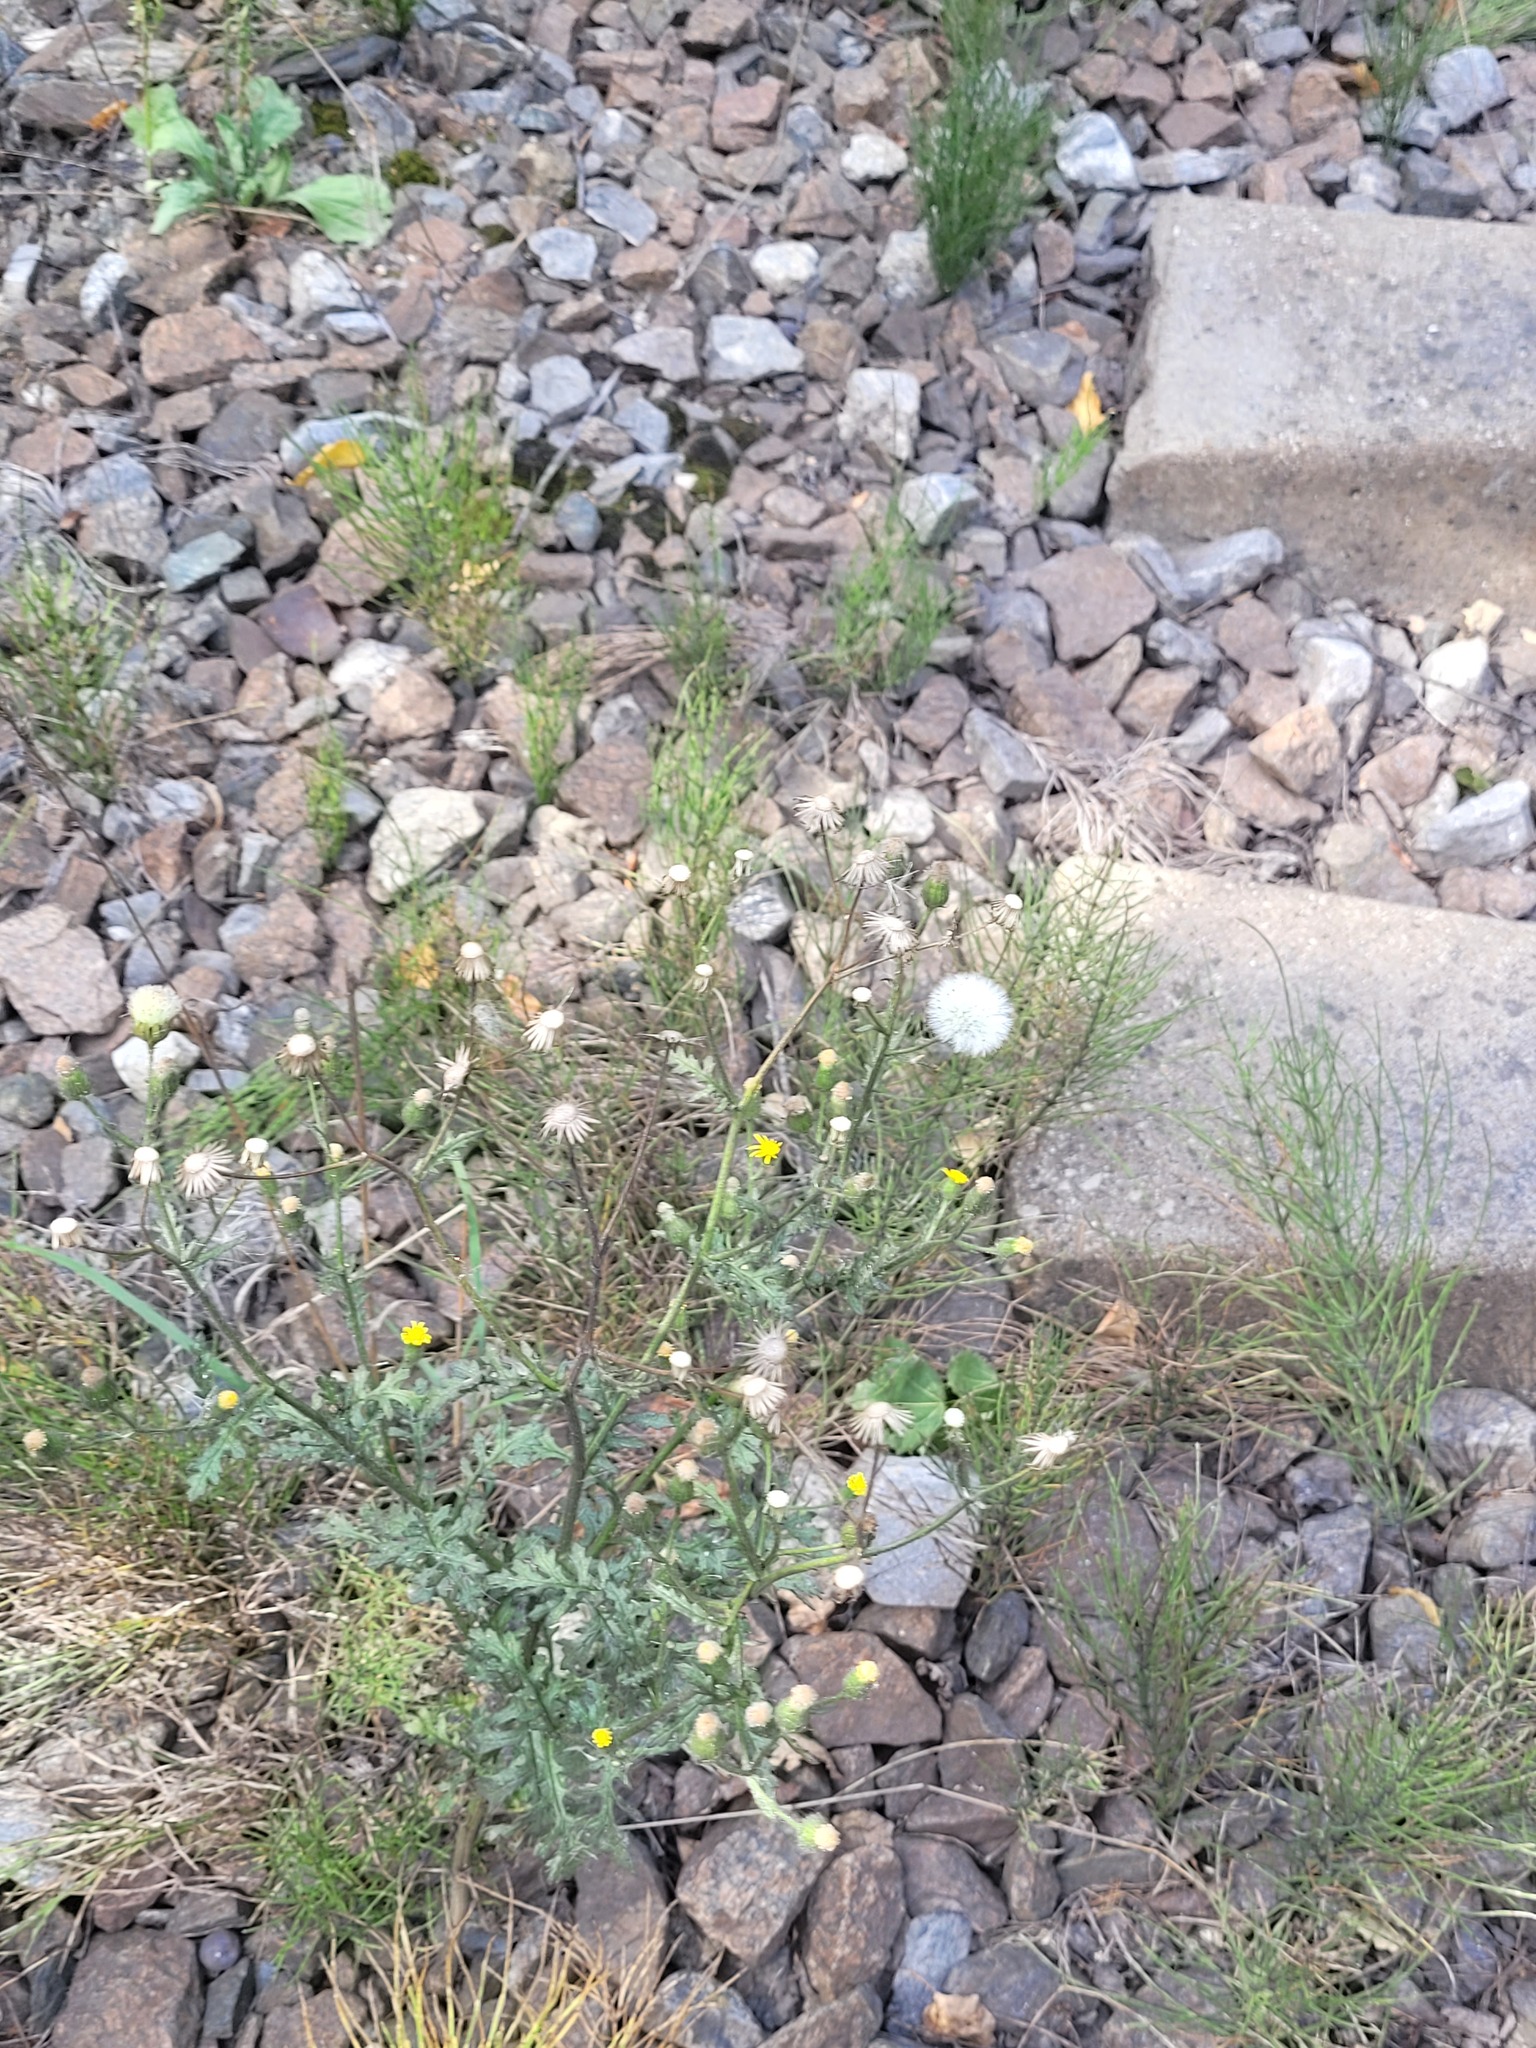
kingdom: Plantae
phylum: Tracheophyta
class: Magnoliopsida
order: Asterales
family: Asteraceae
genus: Senecio
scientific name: Senecio viscosus
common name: Sticky groundsel
